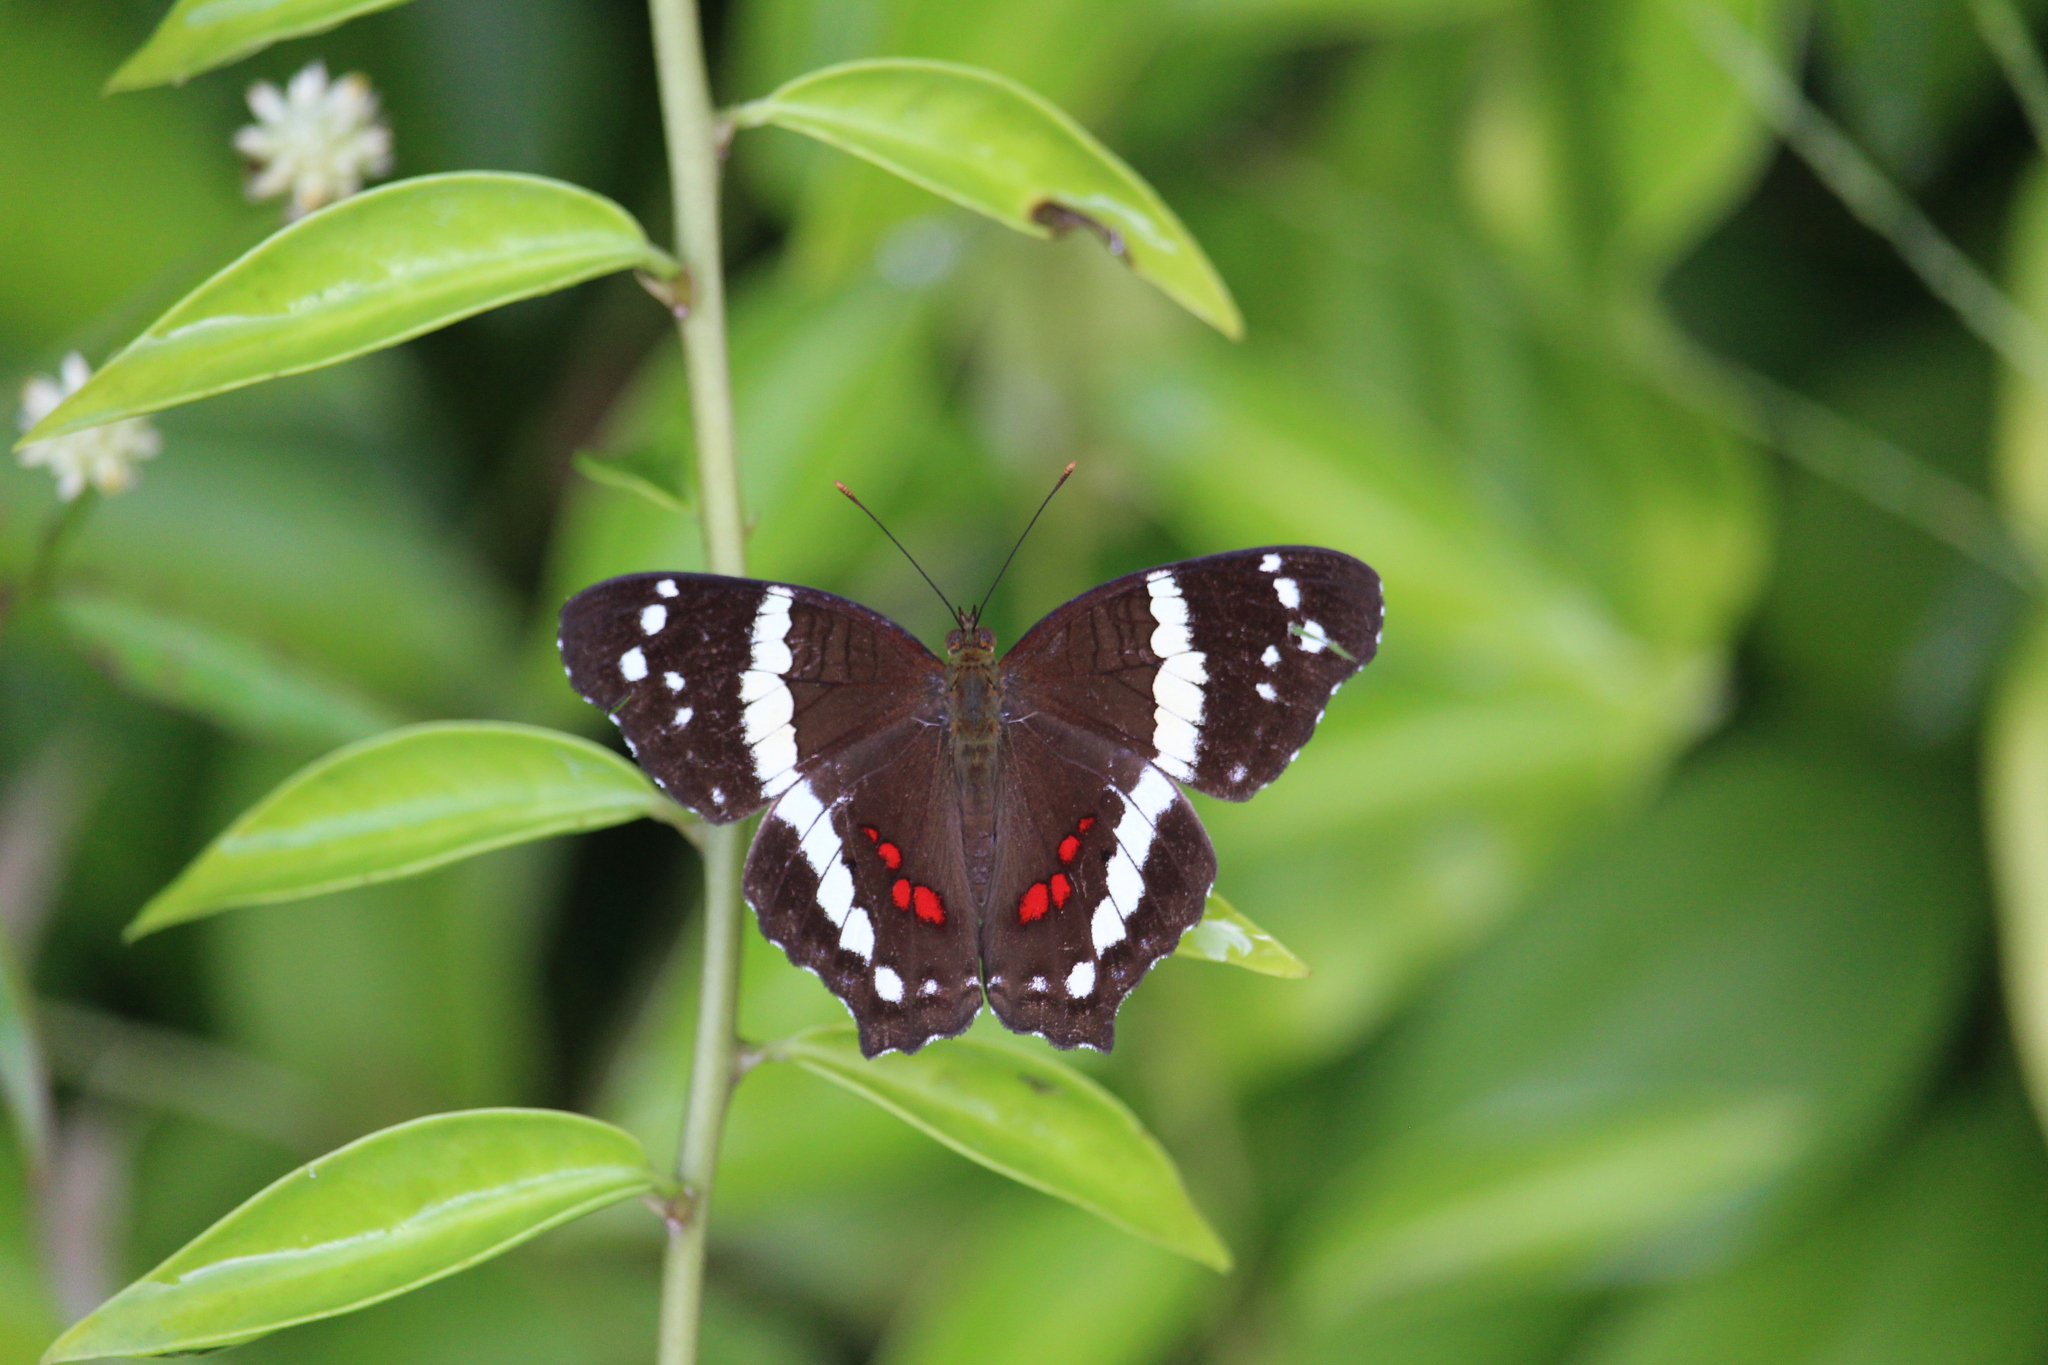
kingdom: Animalia
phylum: Arthropoda
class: Insecta
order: Lepidoptera
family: Nymphalidae
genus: Anartia
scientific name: Anartia fatima
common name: Banded peacock
